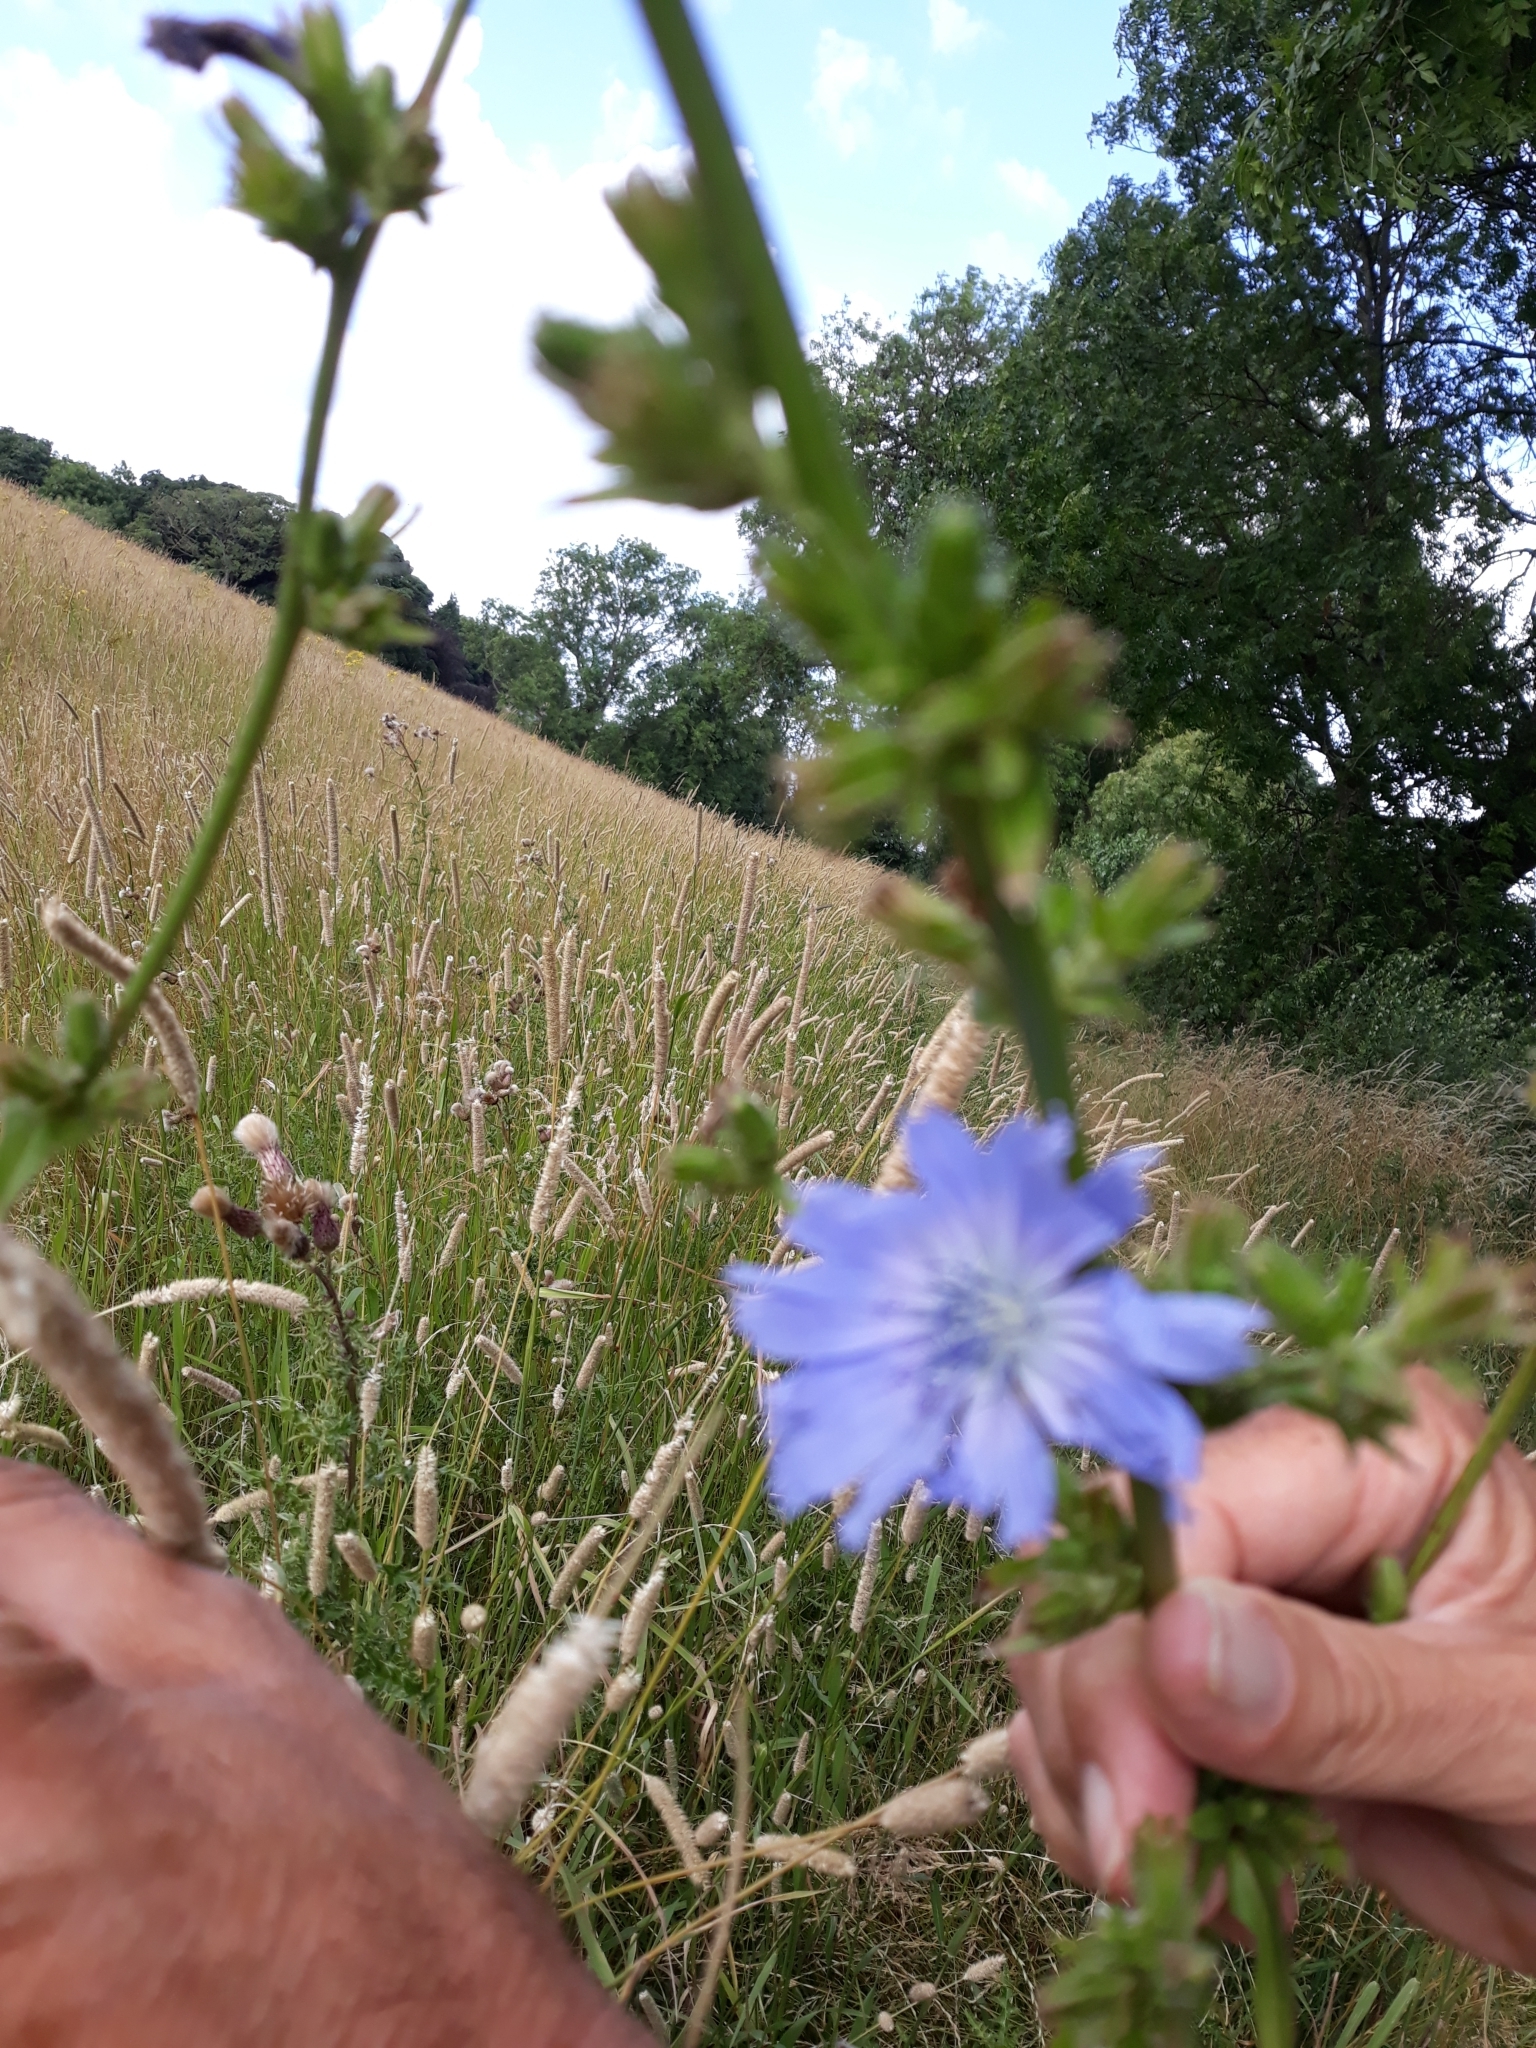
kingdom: Plantae
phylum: Tracheophyta
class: Magnoliopsida
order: Asterales
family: Asteraceae
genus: Cichorium
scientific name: Cichorium intybus
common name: Chicory
